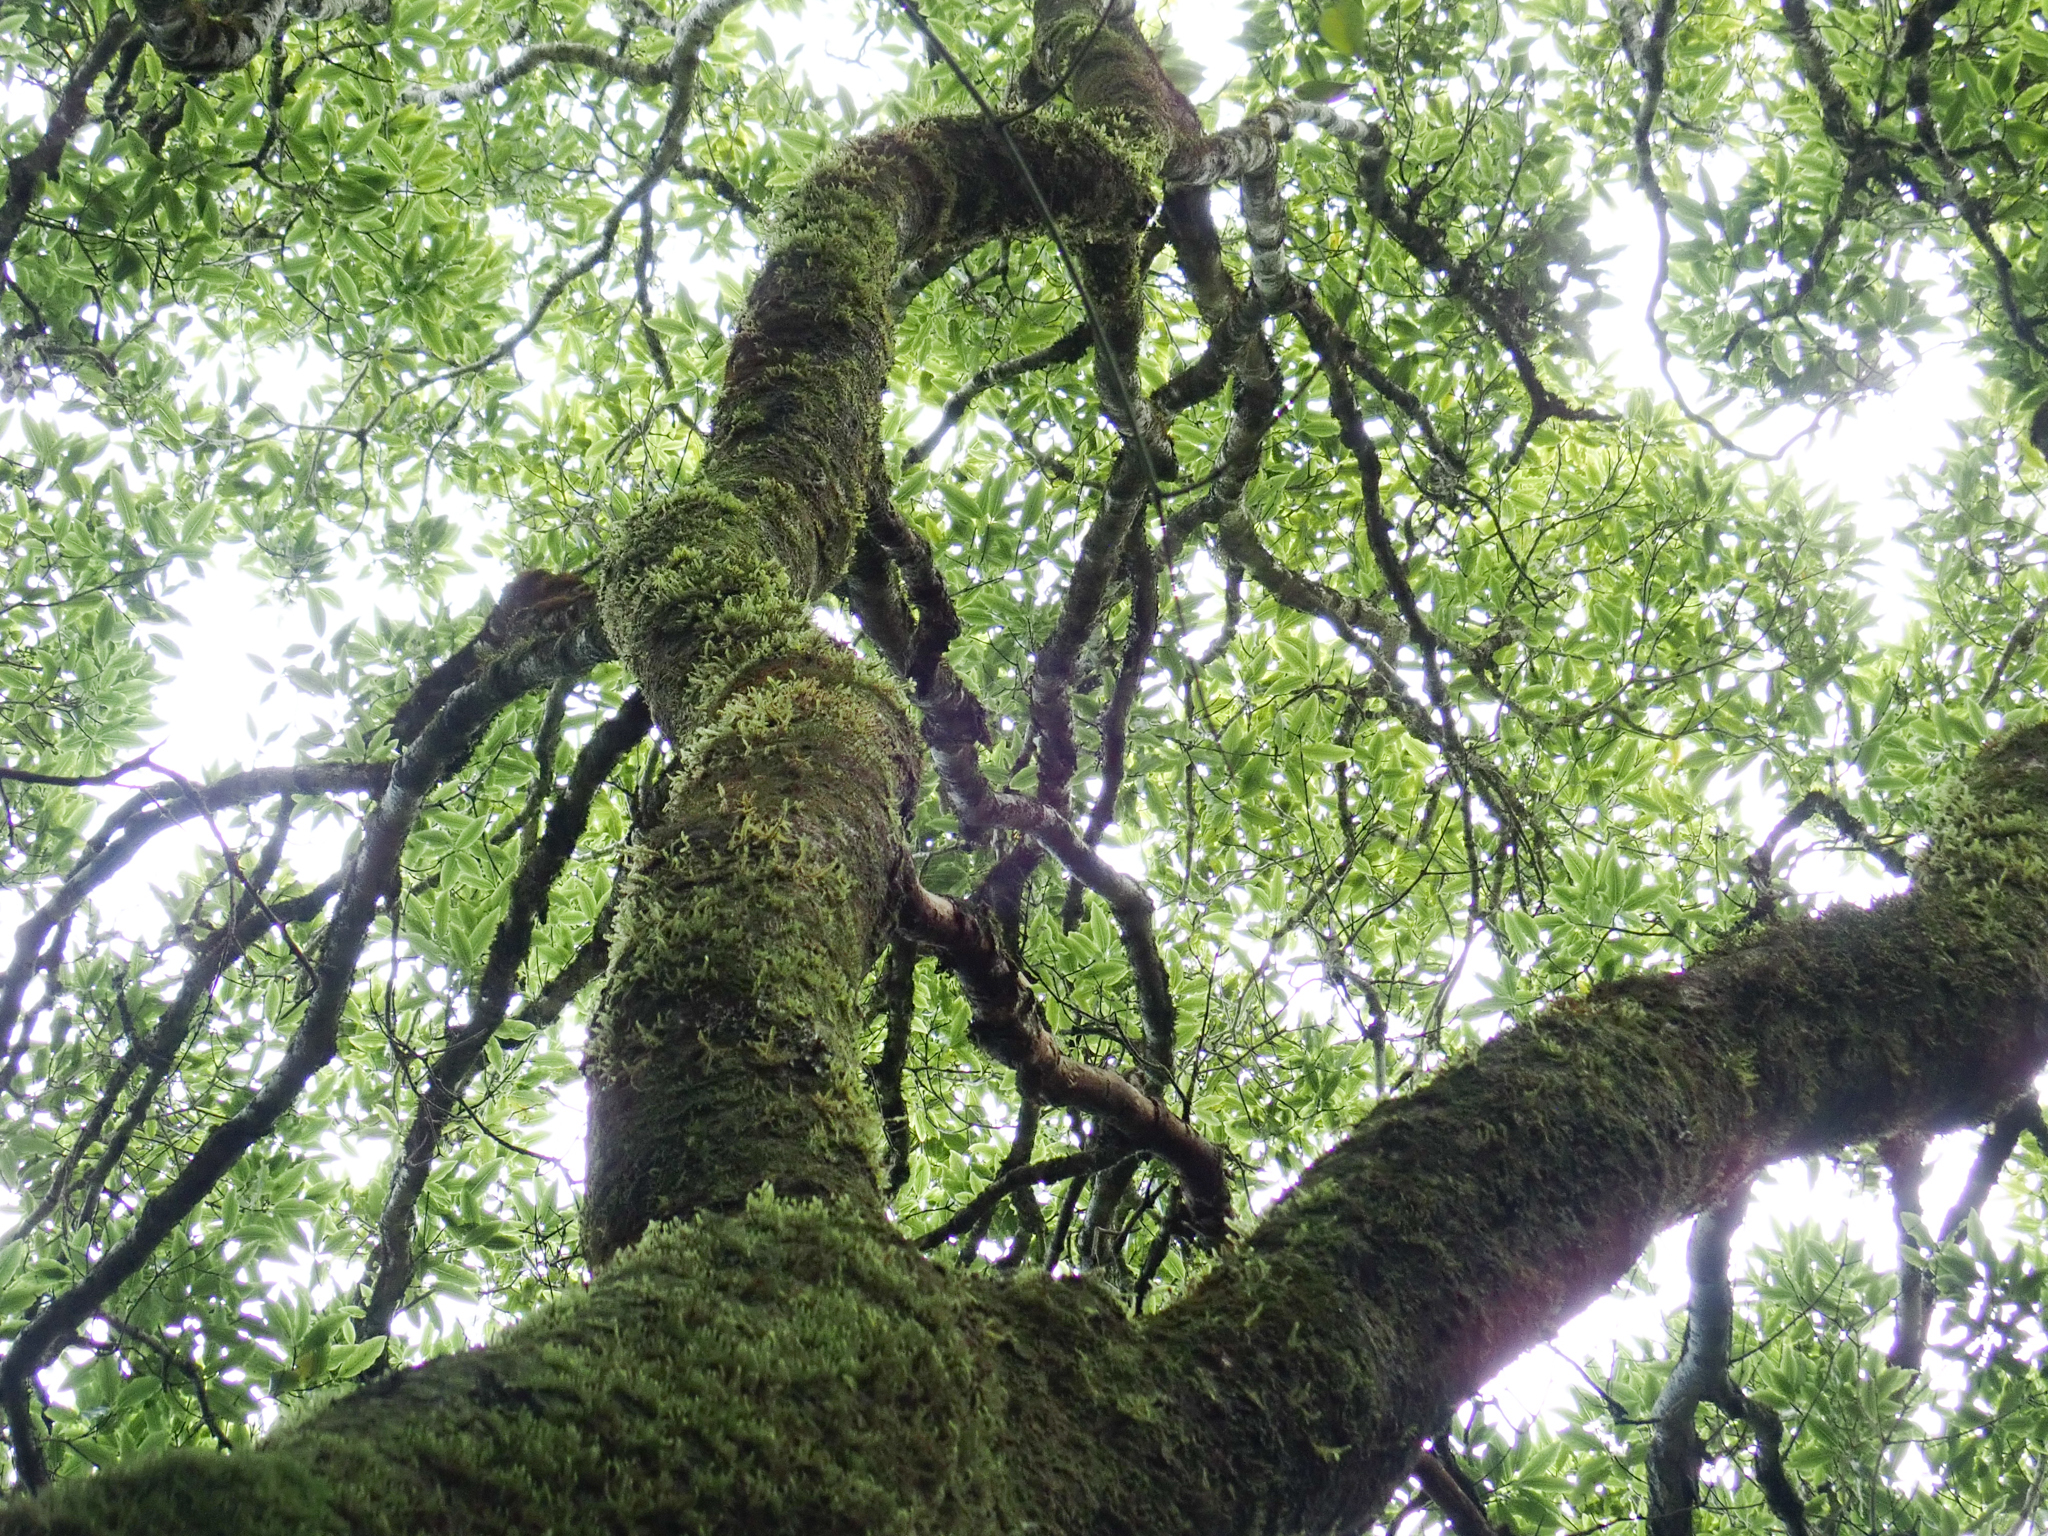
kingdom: Plantae
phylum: Tracheophyta
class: Magnoliopsida
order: Apiales
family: Pittosporaceae
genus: Pittosporum
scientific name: Pittosporum eugenioides
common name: Lemonwood
